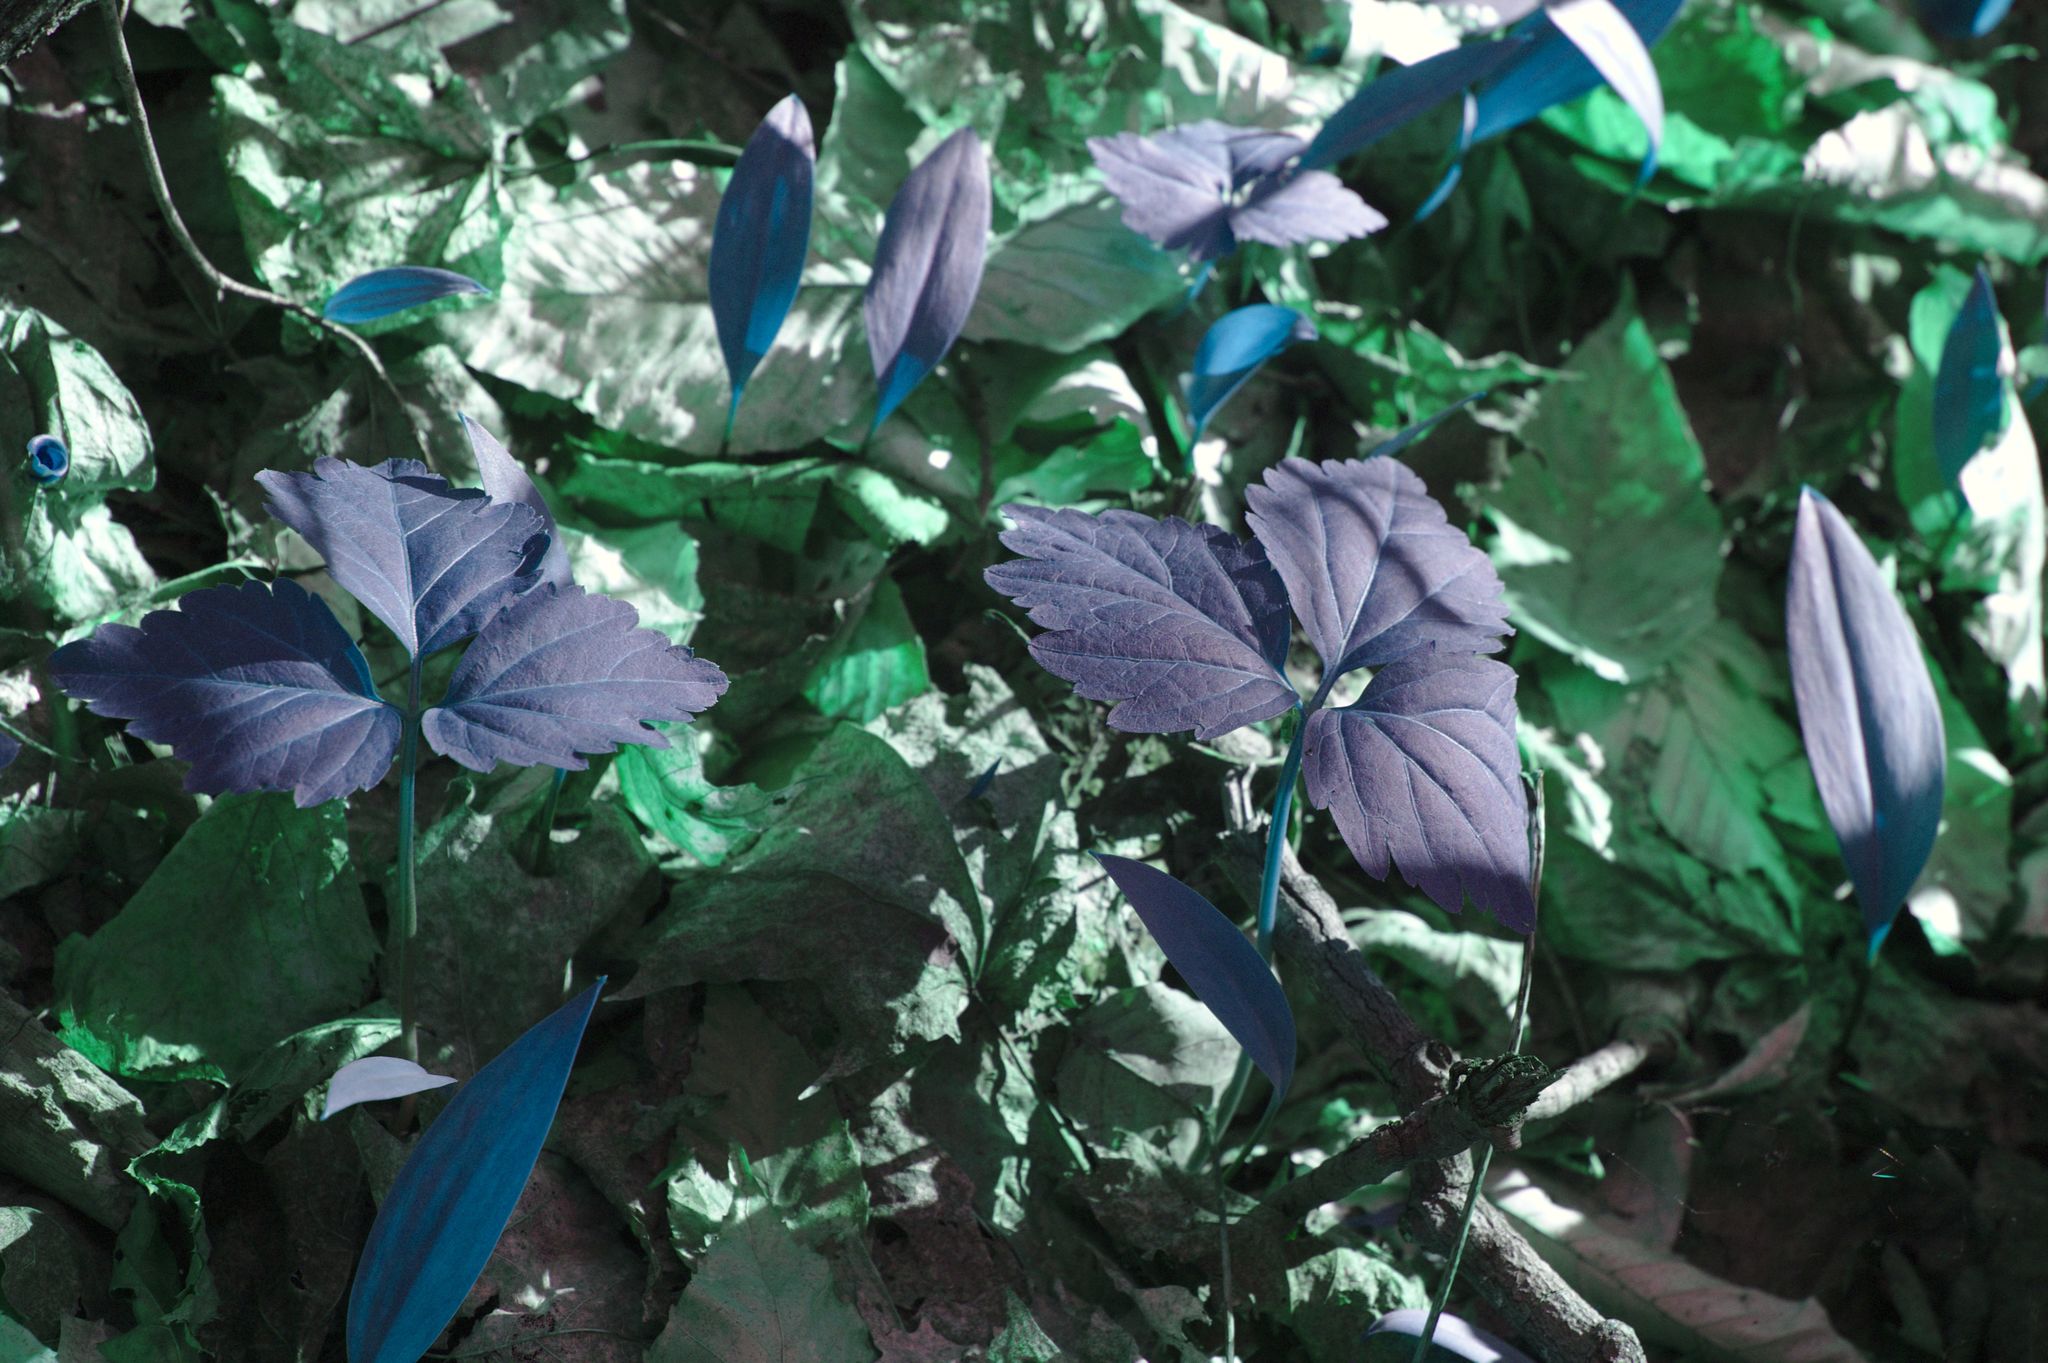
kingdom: Plantae
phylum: Tracheophyta
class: Magnoliopsida
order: Brassicales
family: Brassicaceae
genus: Cardamine
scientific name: Cardamine diphylla
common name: Broad-leaved toothwort
